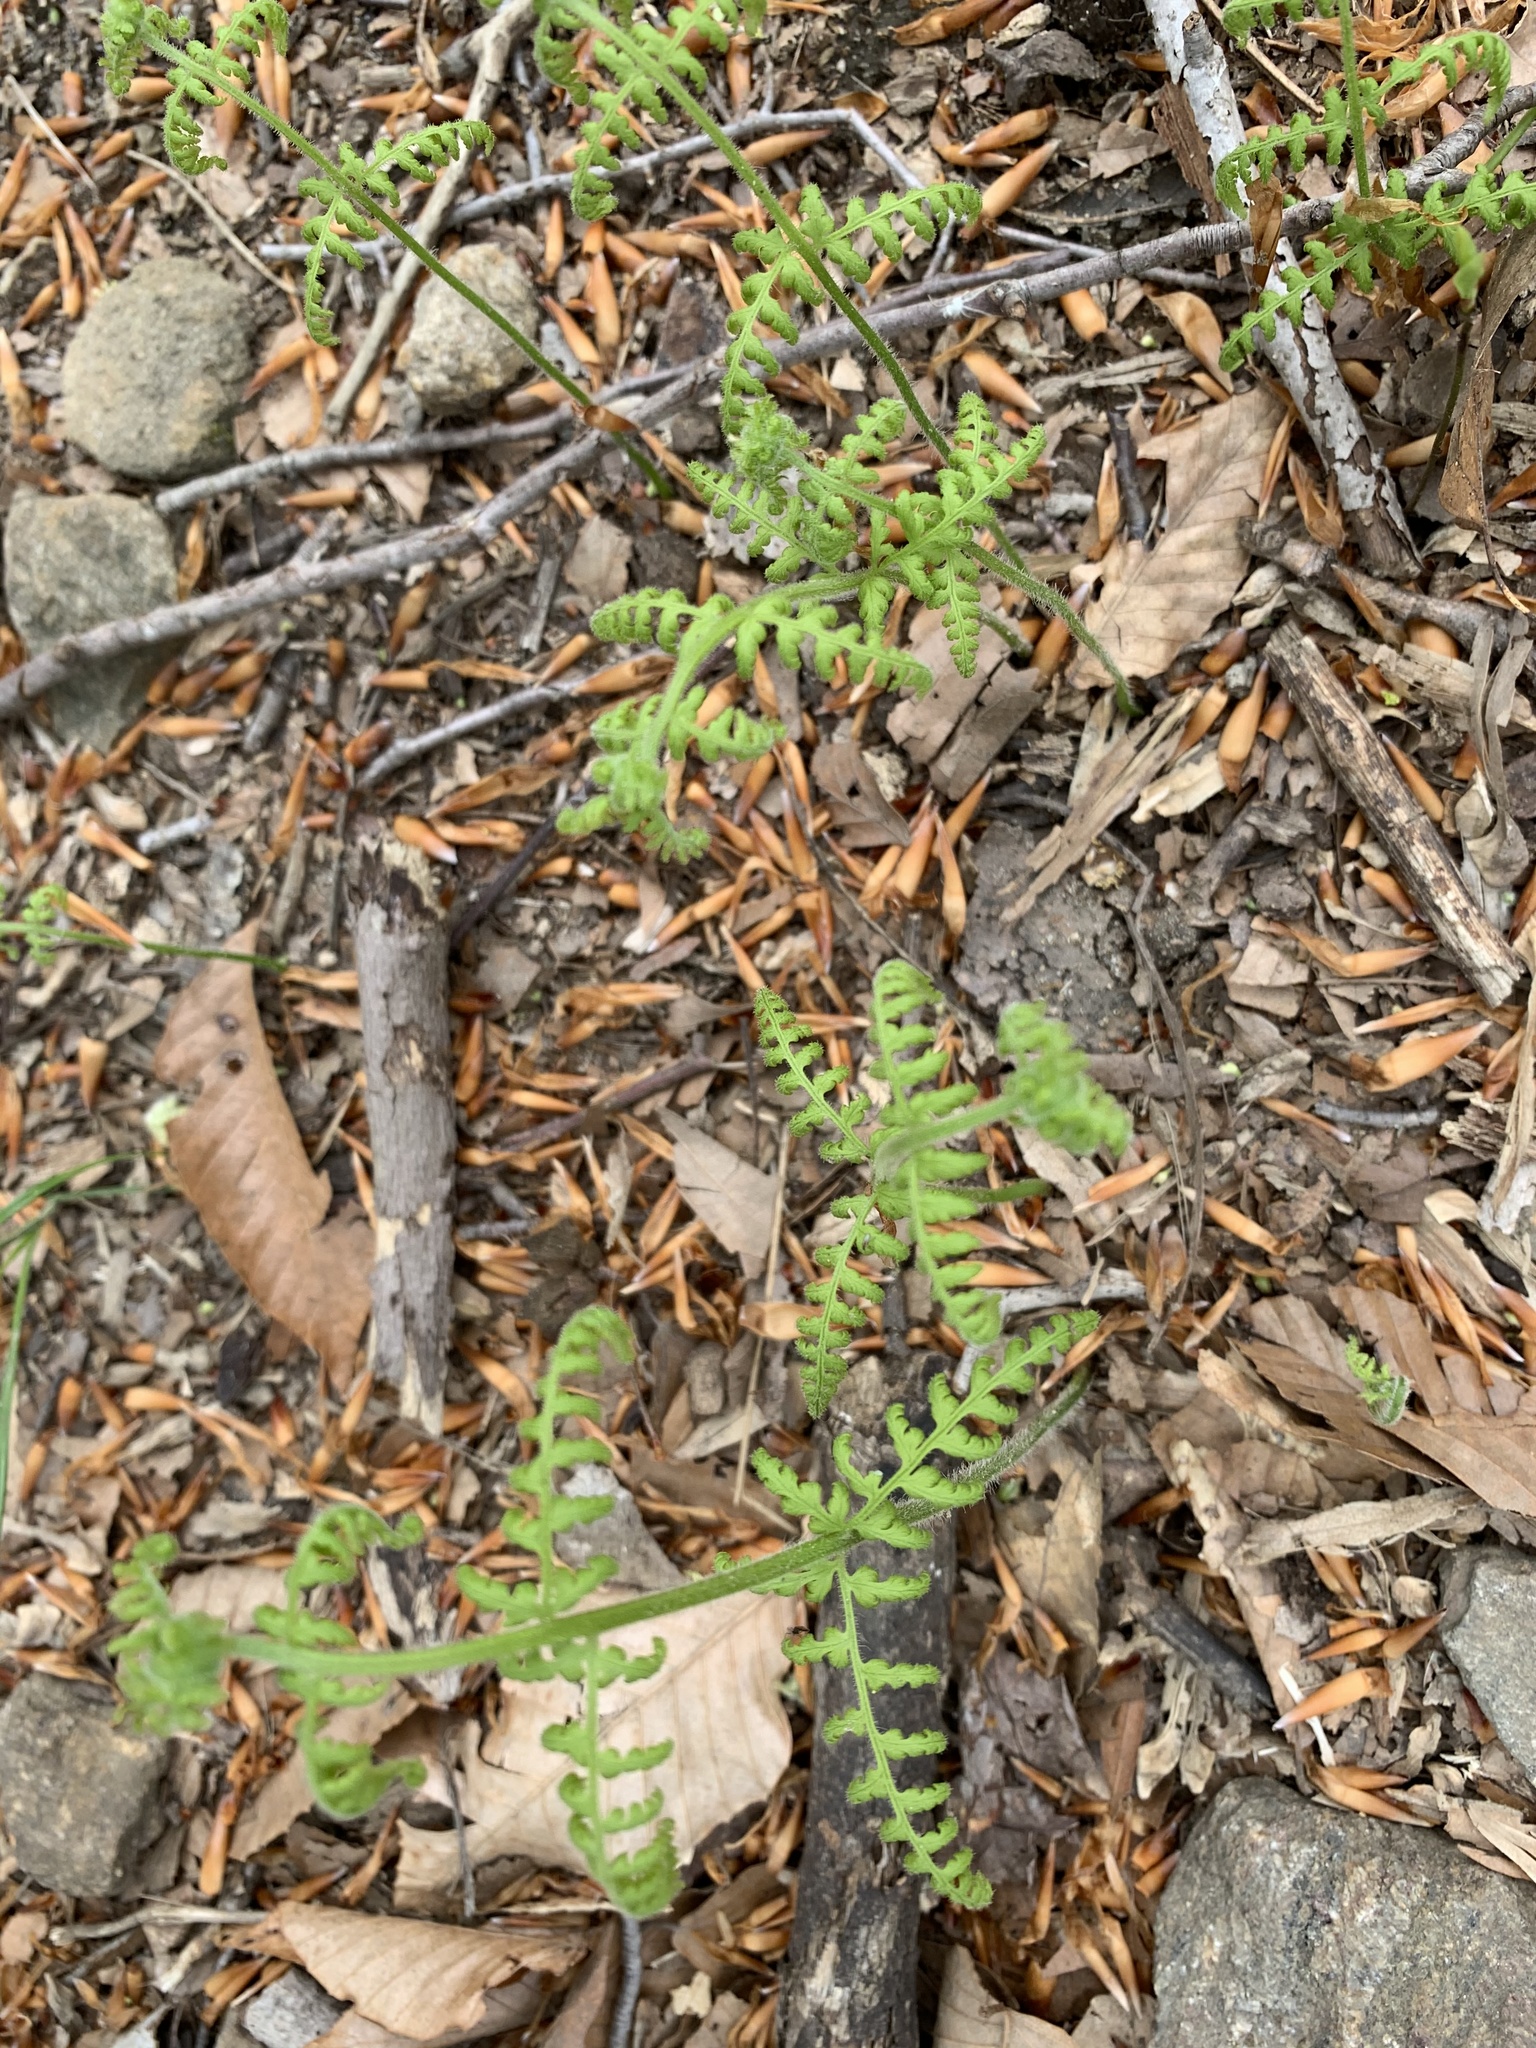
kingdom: Plantae
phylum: Tracheophyta
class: Polypodiopsida
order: Polypodiales
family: Dennstaedtiaceae
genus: Sitobolium
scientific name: Sitobolium punctilobum
